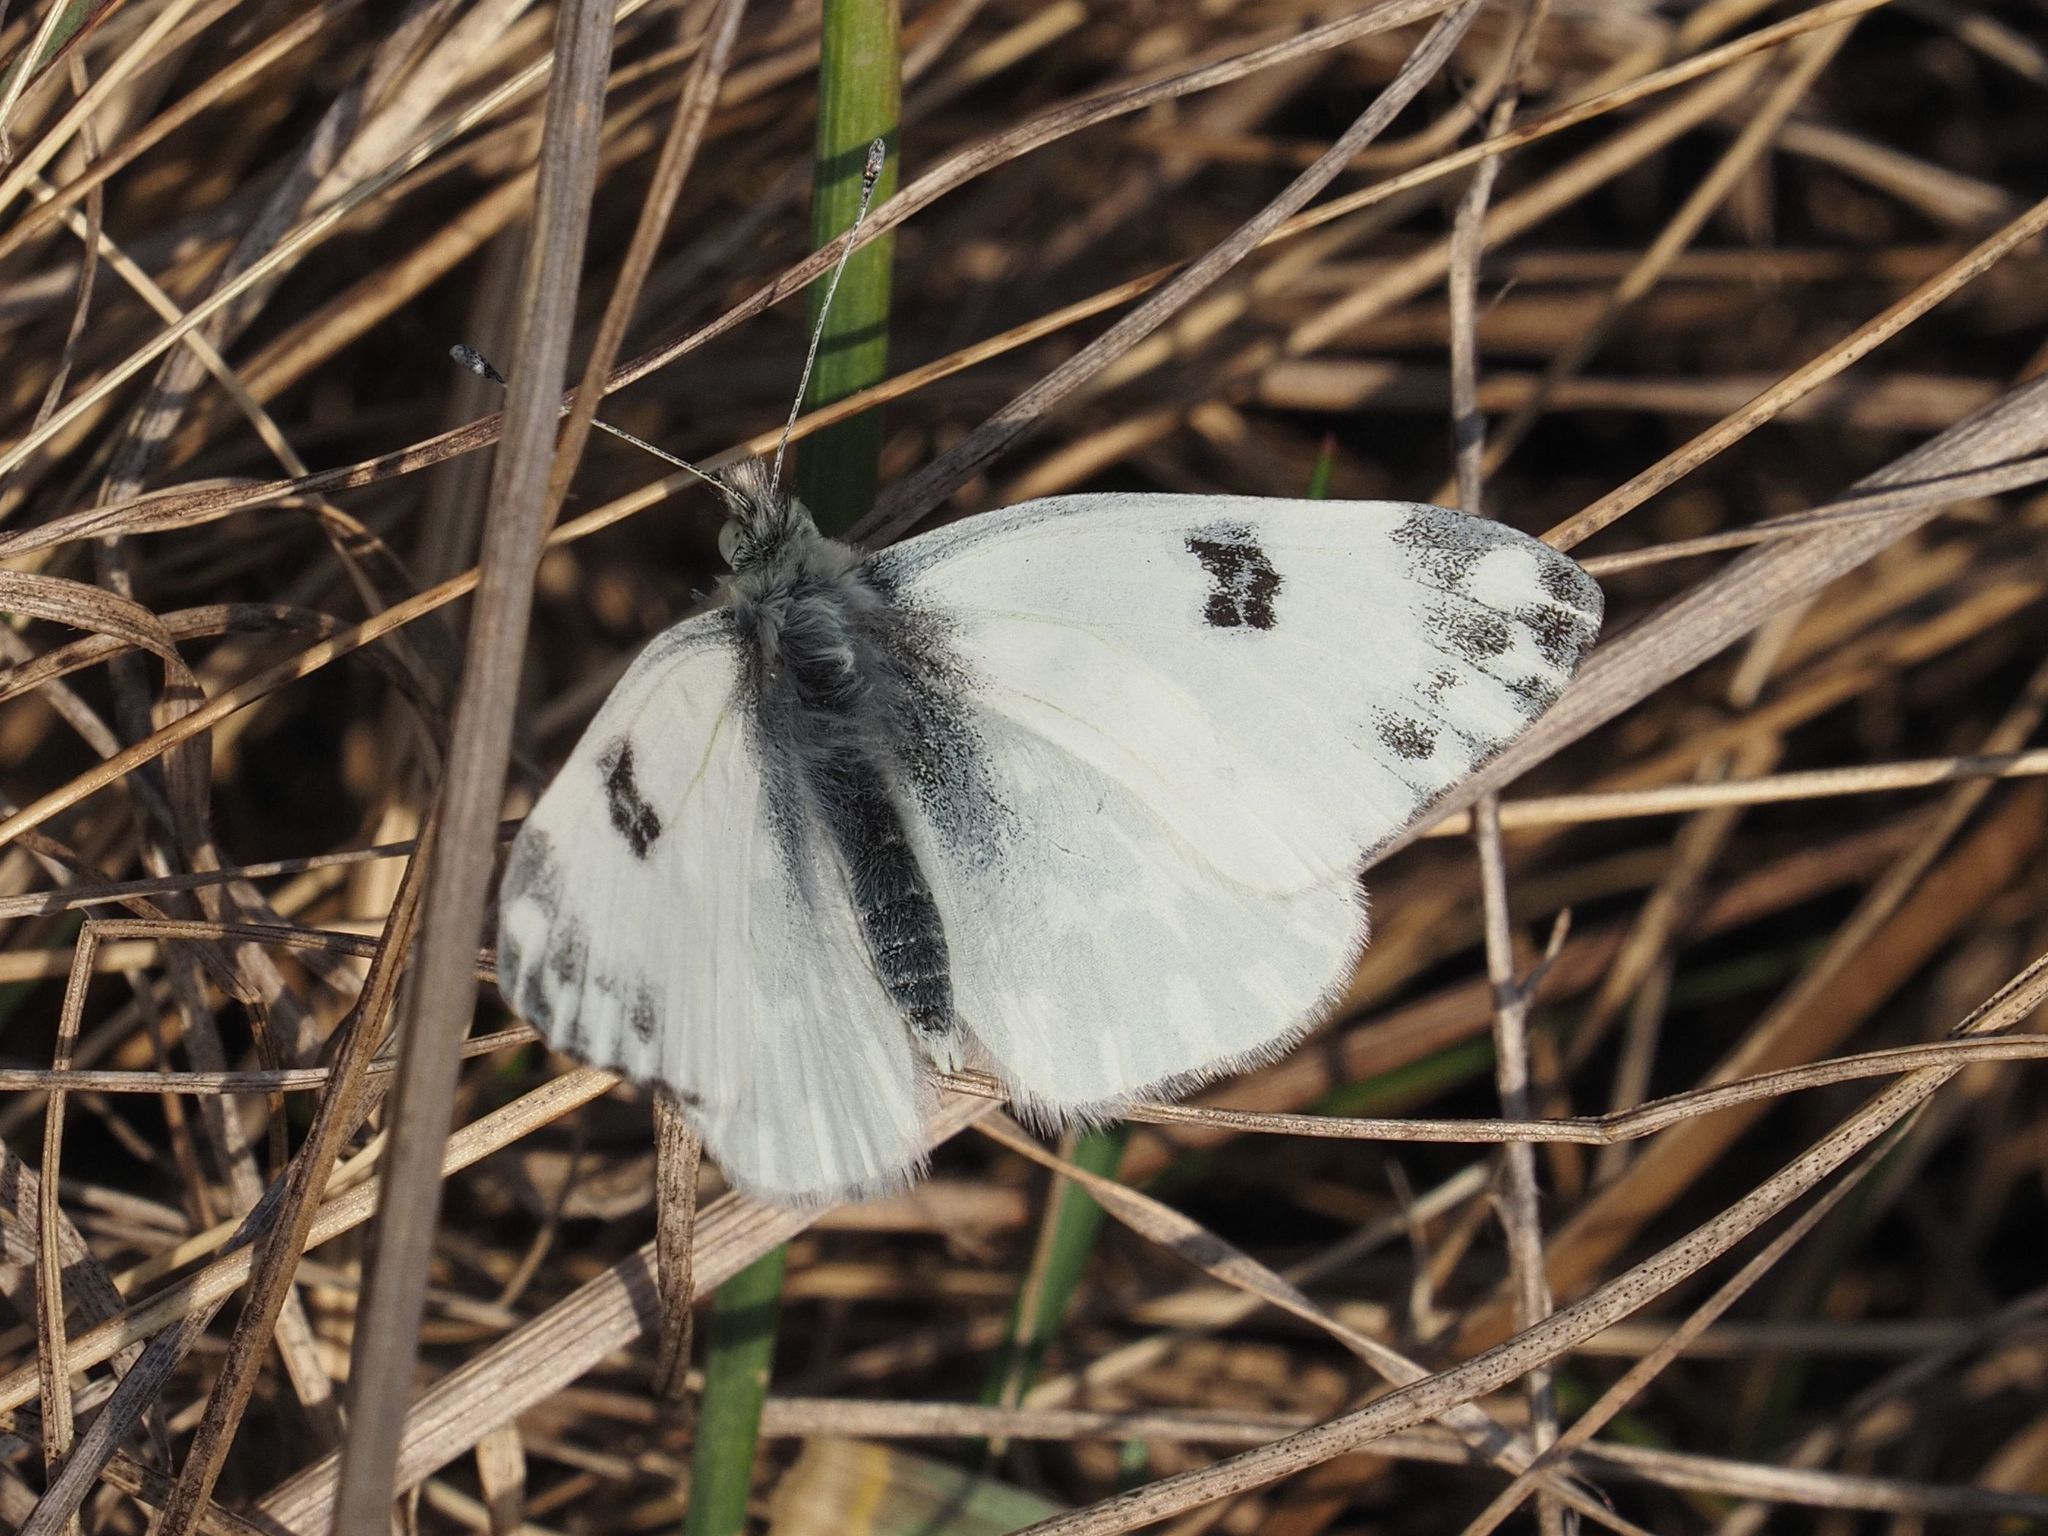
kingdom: Animalia
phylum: Arthropoda
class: Insecta
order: Lepidoptera
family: Pieridae
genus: Pontia
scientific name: Pontia edusa
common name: Eastern bath white
